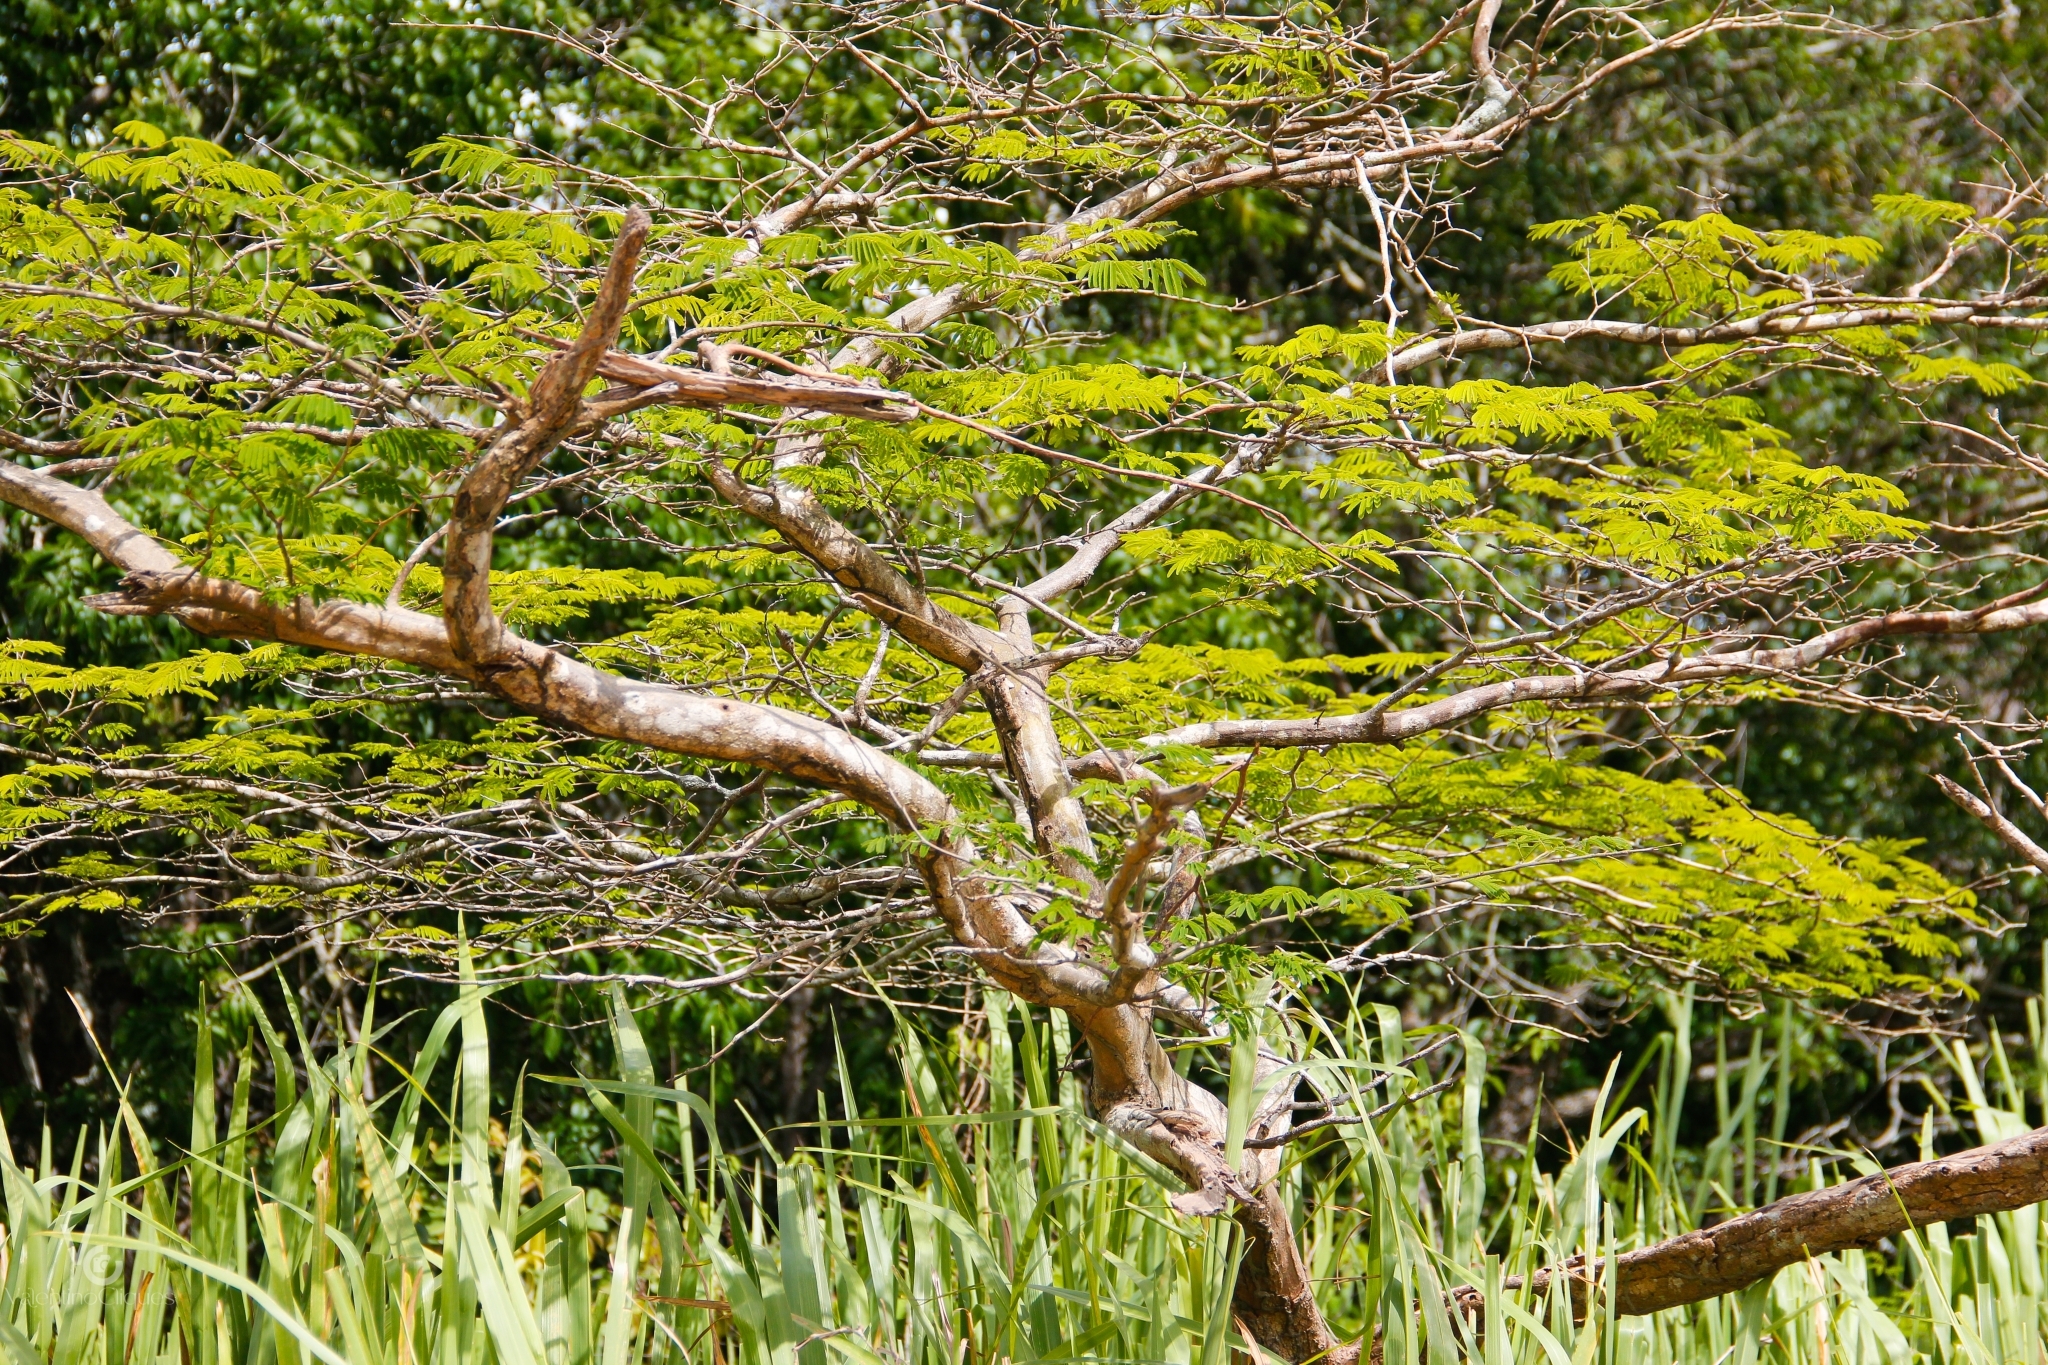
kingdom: Plantae
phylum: Tracheophyta
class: Magnoliopsida
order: Fabales
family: Fabaceae
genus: Chloroleucon
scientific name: Chloroleucon
